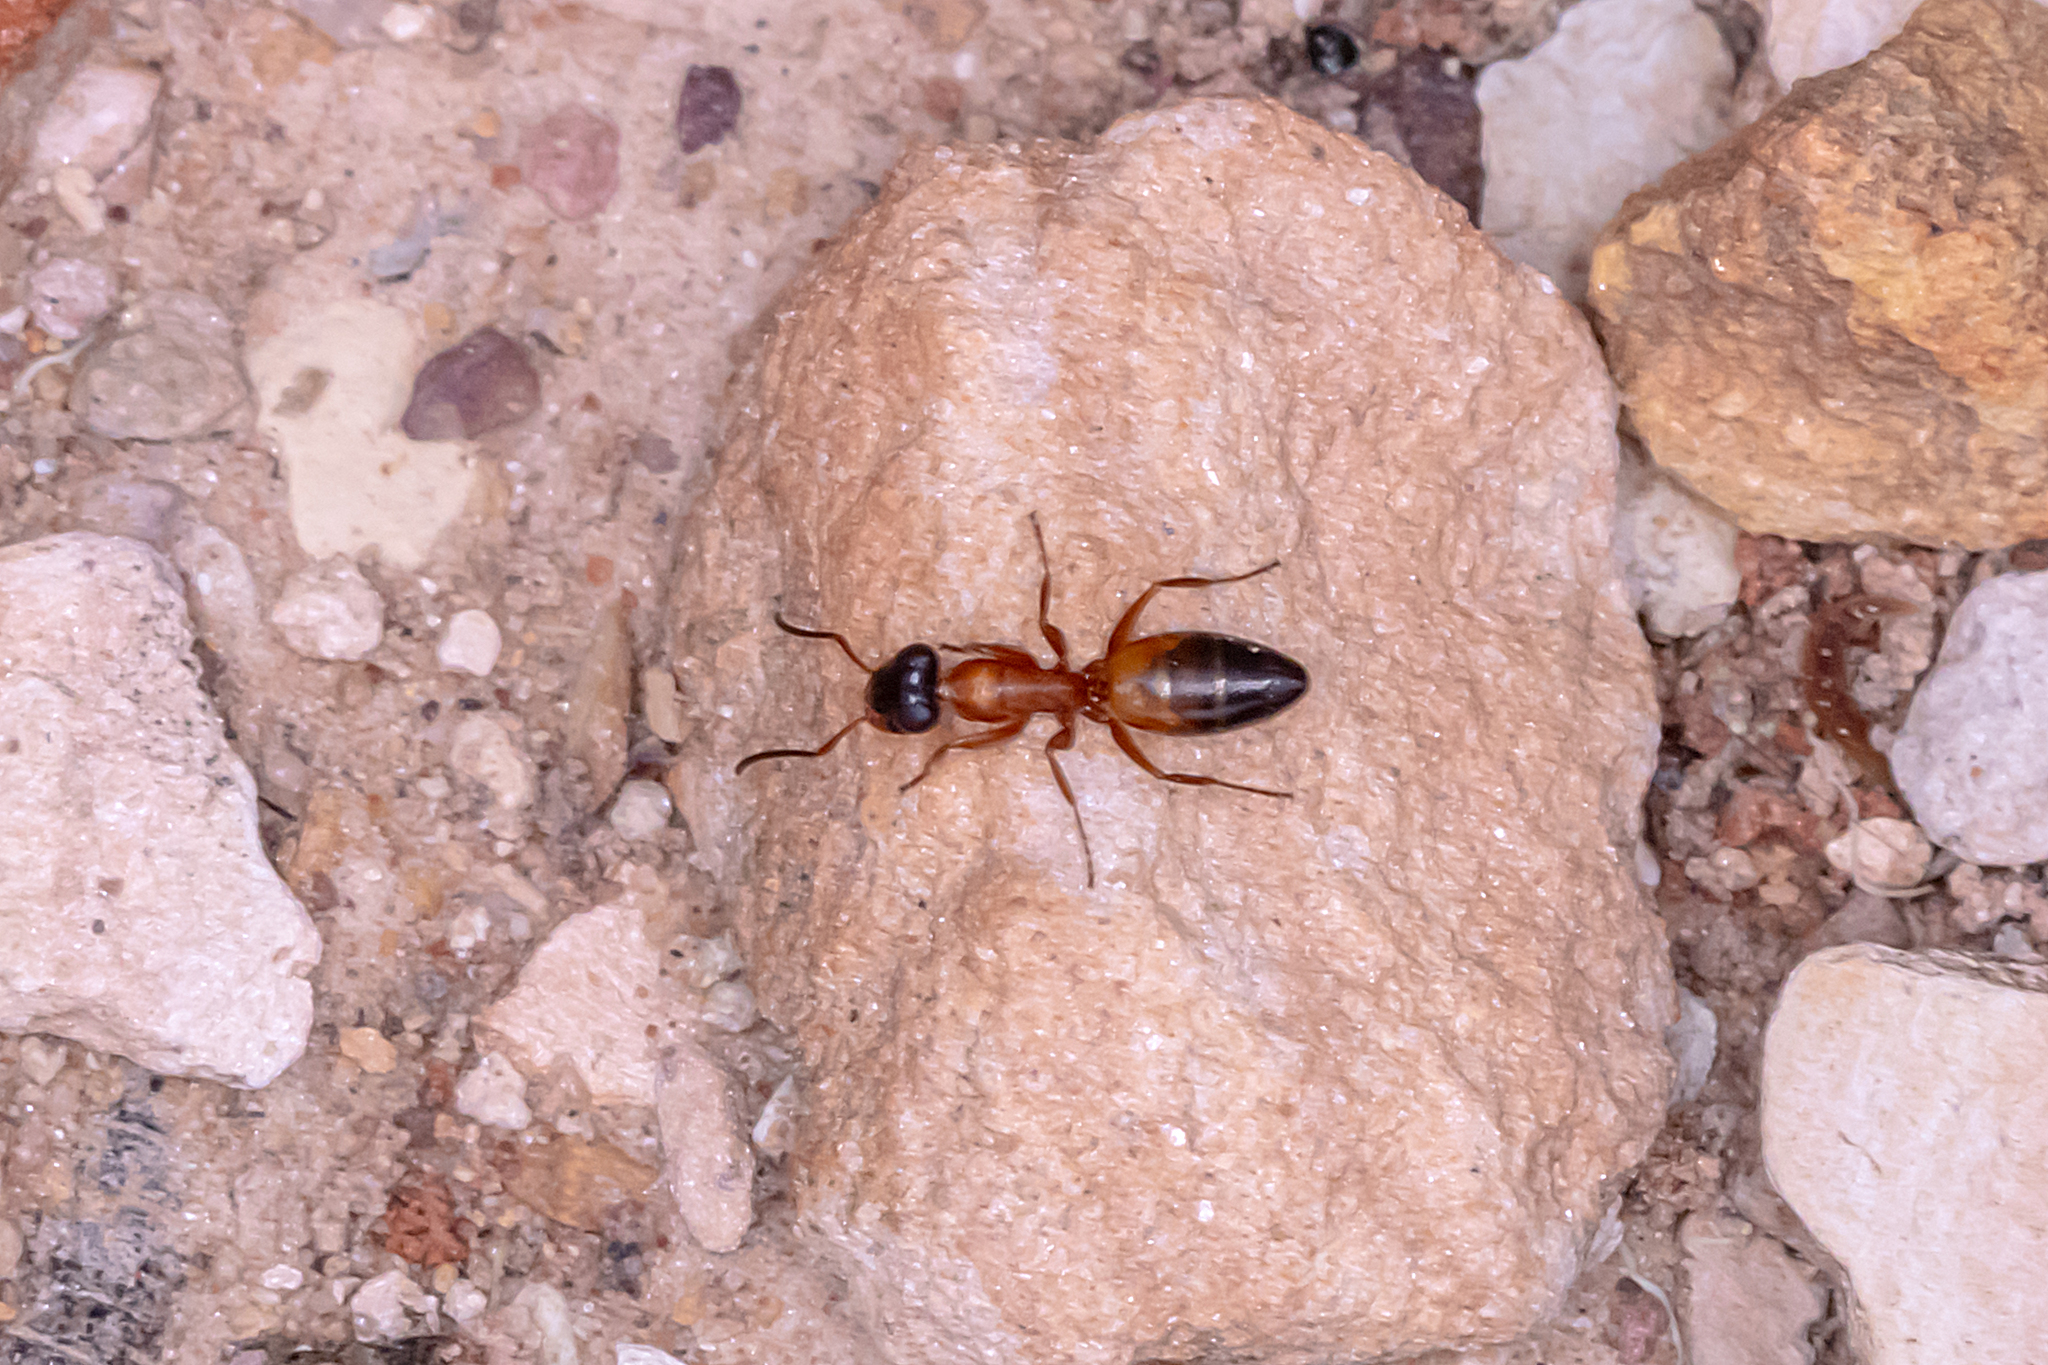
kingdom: Animalia
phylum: Arthropoda
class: Insecta
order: Hymenoptera
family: Formicidae
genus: Opisthopsis
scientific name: Opisthopsis rufithorax
